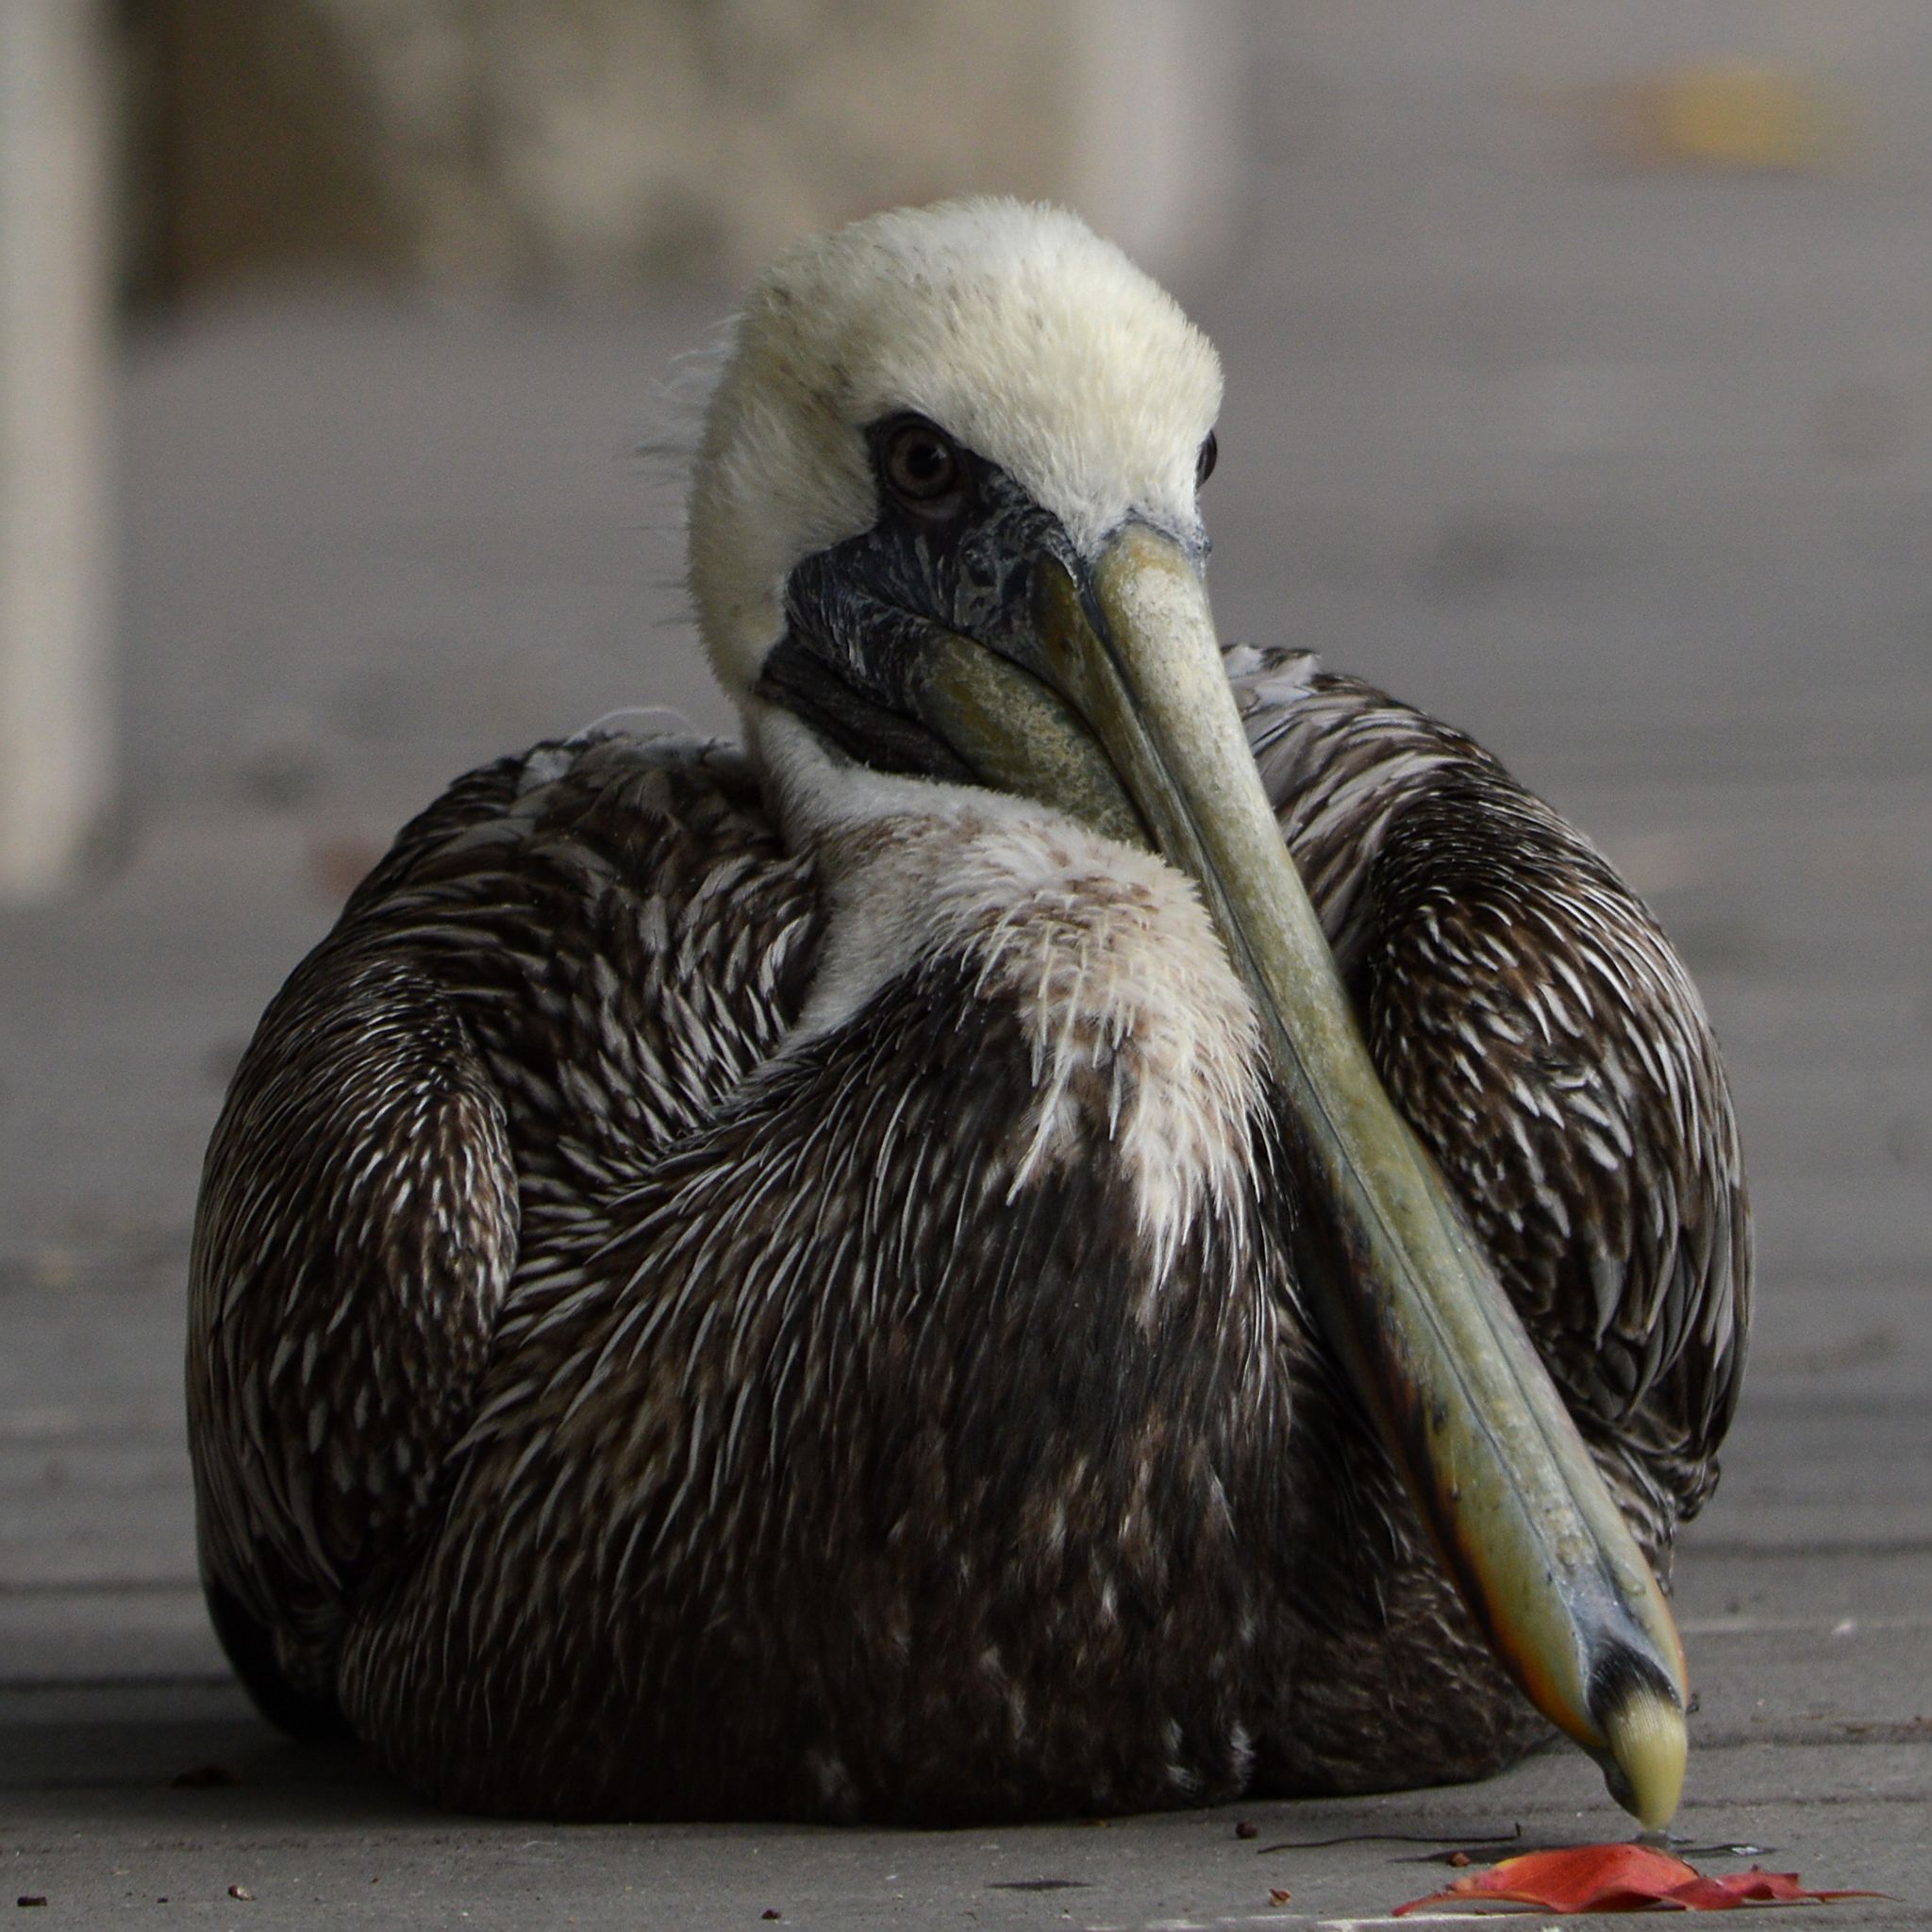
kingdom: Animalia
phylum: Chordata
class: Aves
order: Pelecaniformes
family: Pelecanidae
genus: Pelecanus
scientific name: Pelecanus occidentalis
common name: Brown pelican
